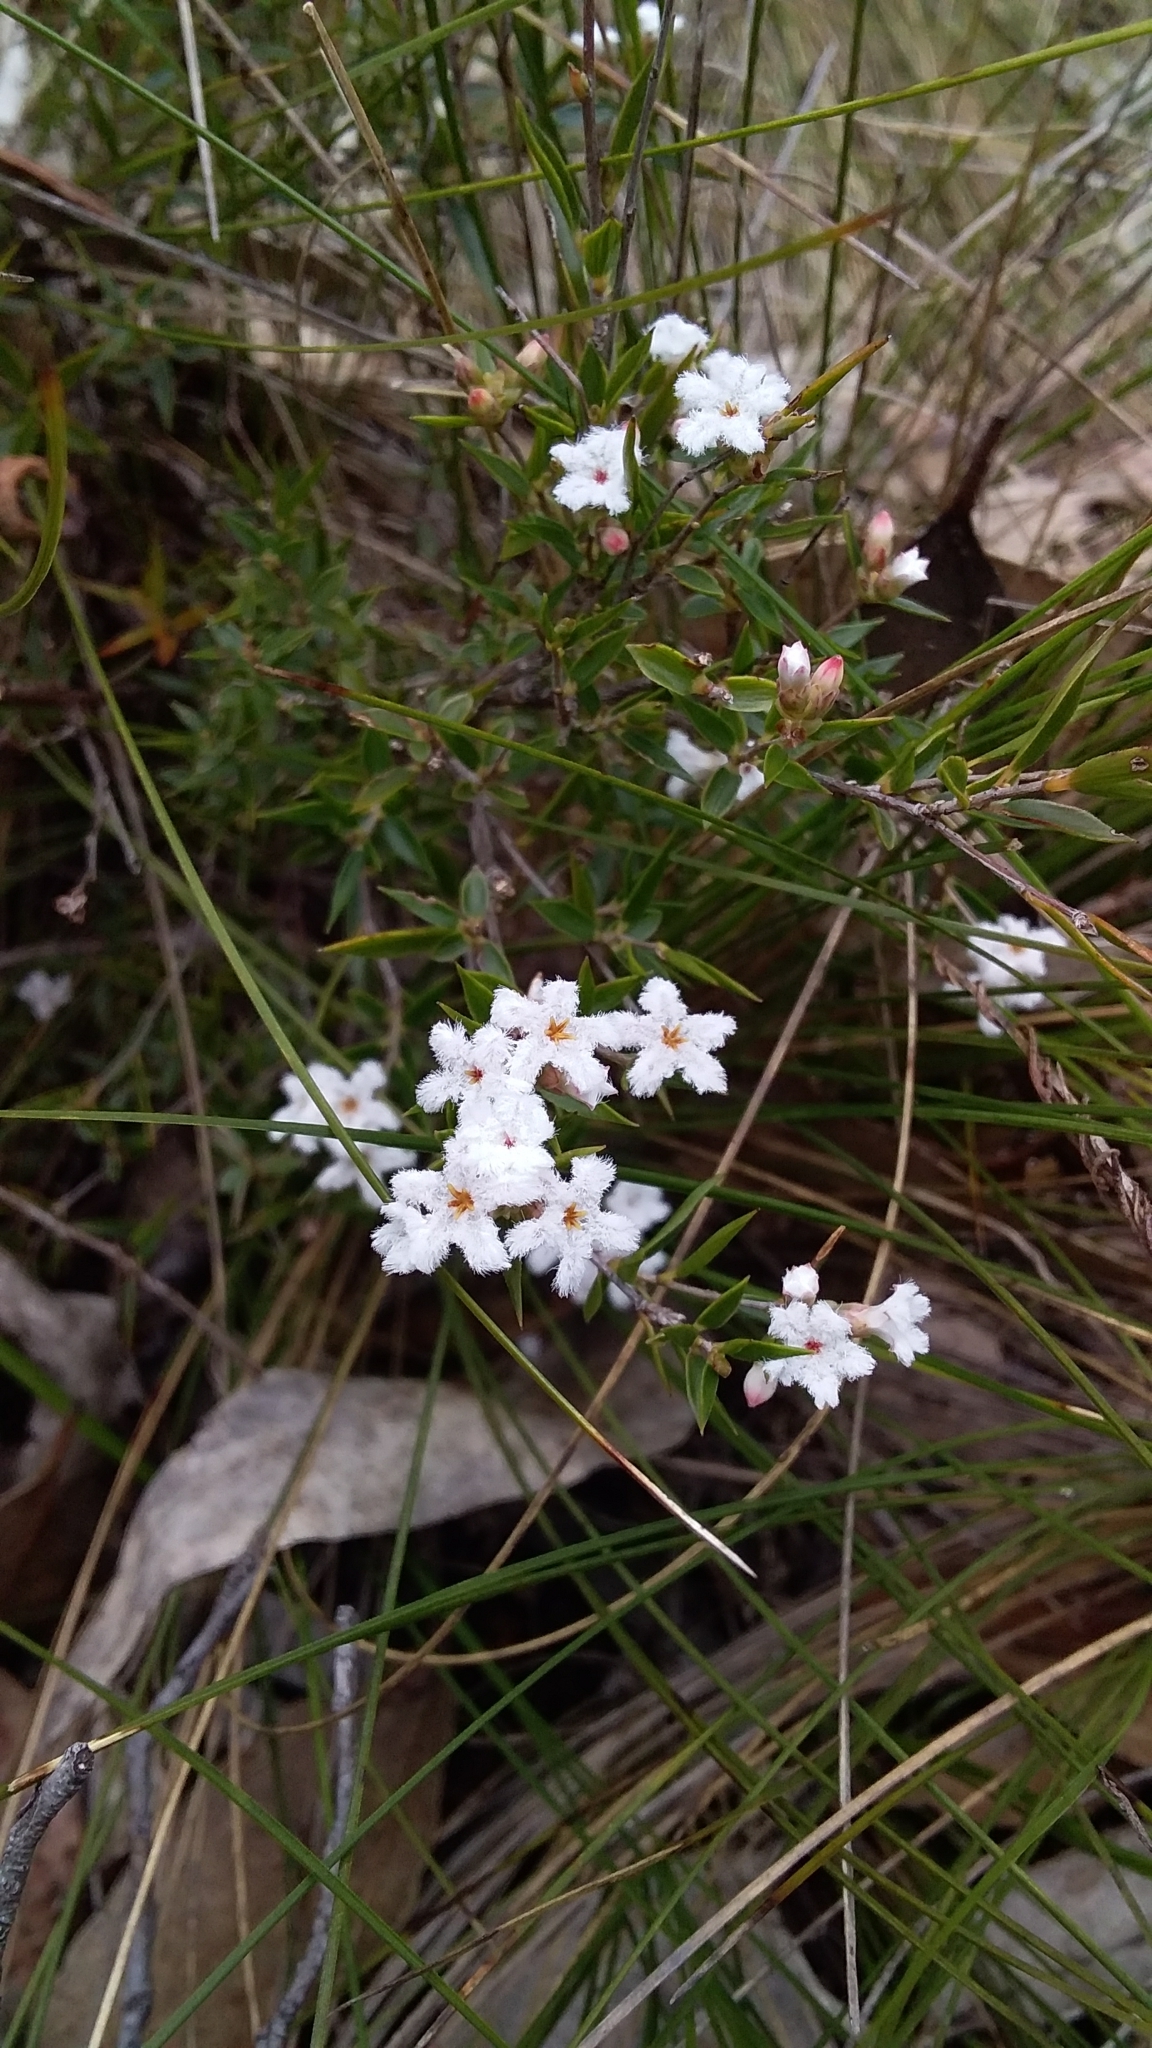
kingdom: Plantae
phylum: Tracheophyta
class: Magnoliopsida
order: Ericales
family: Ericaceae
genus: Leucopogon
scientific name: Leucopogon virgatus
